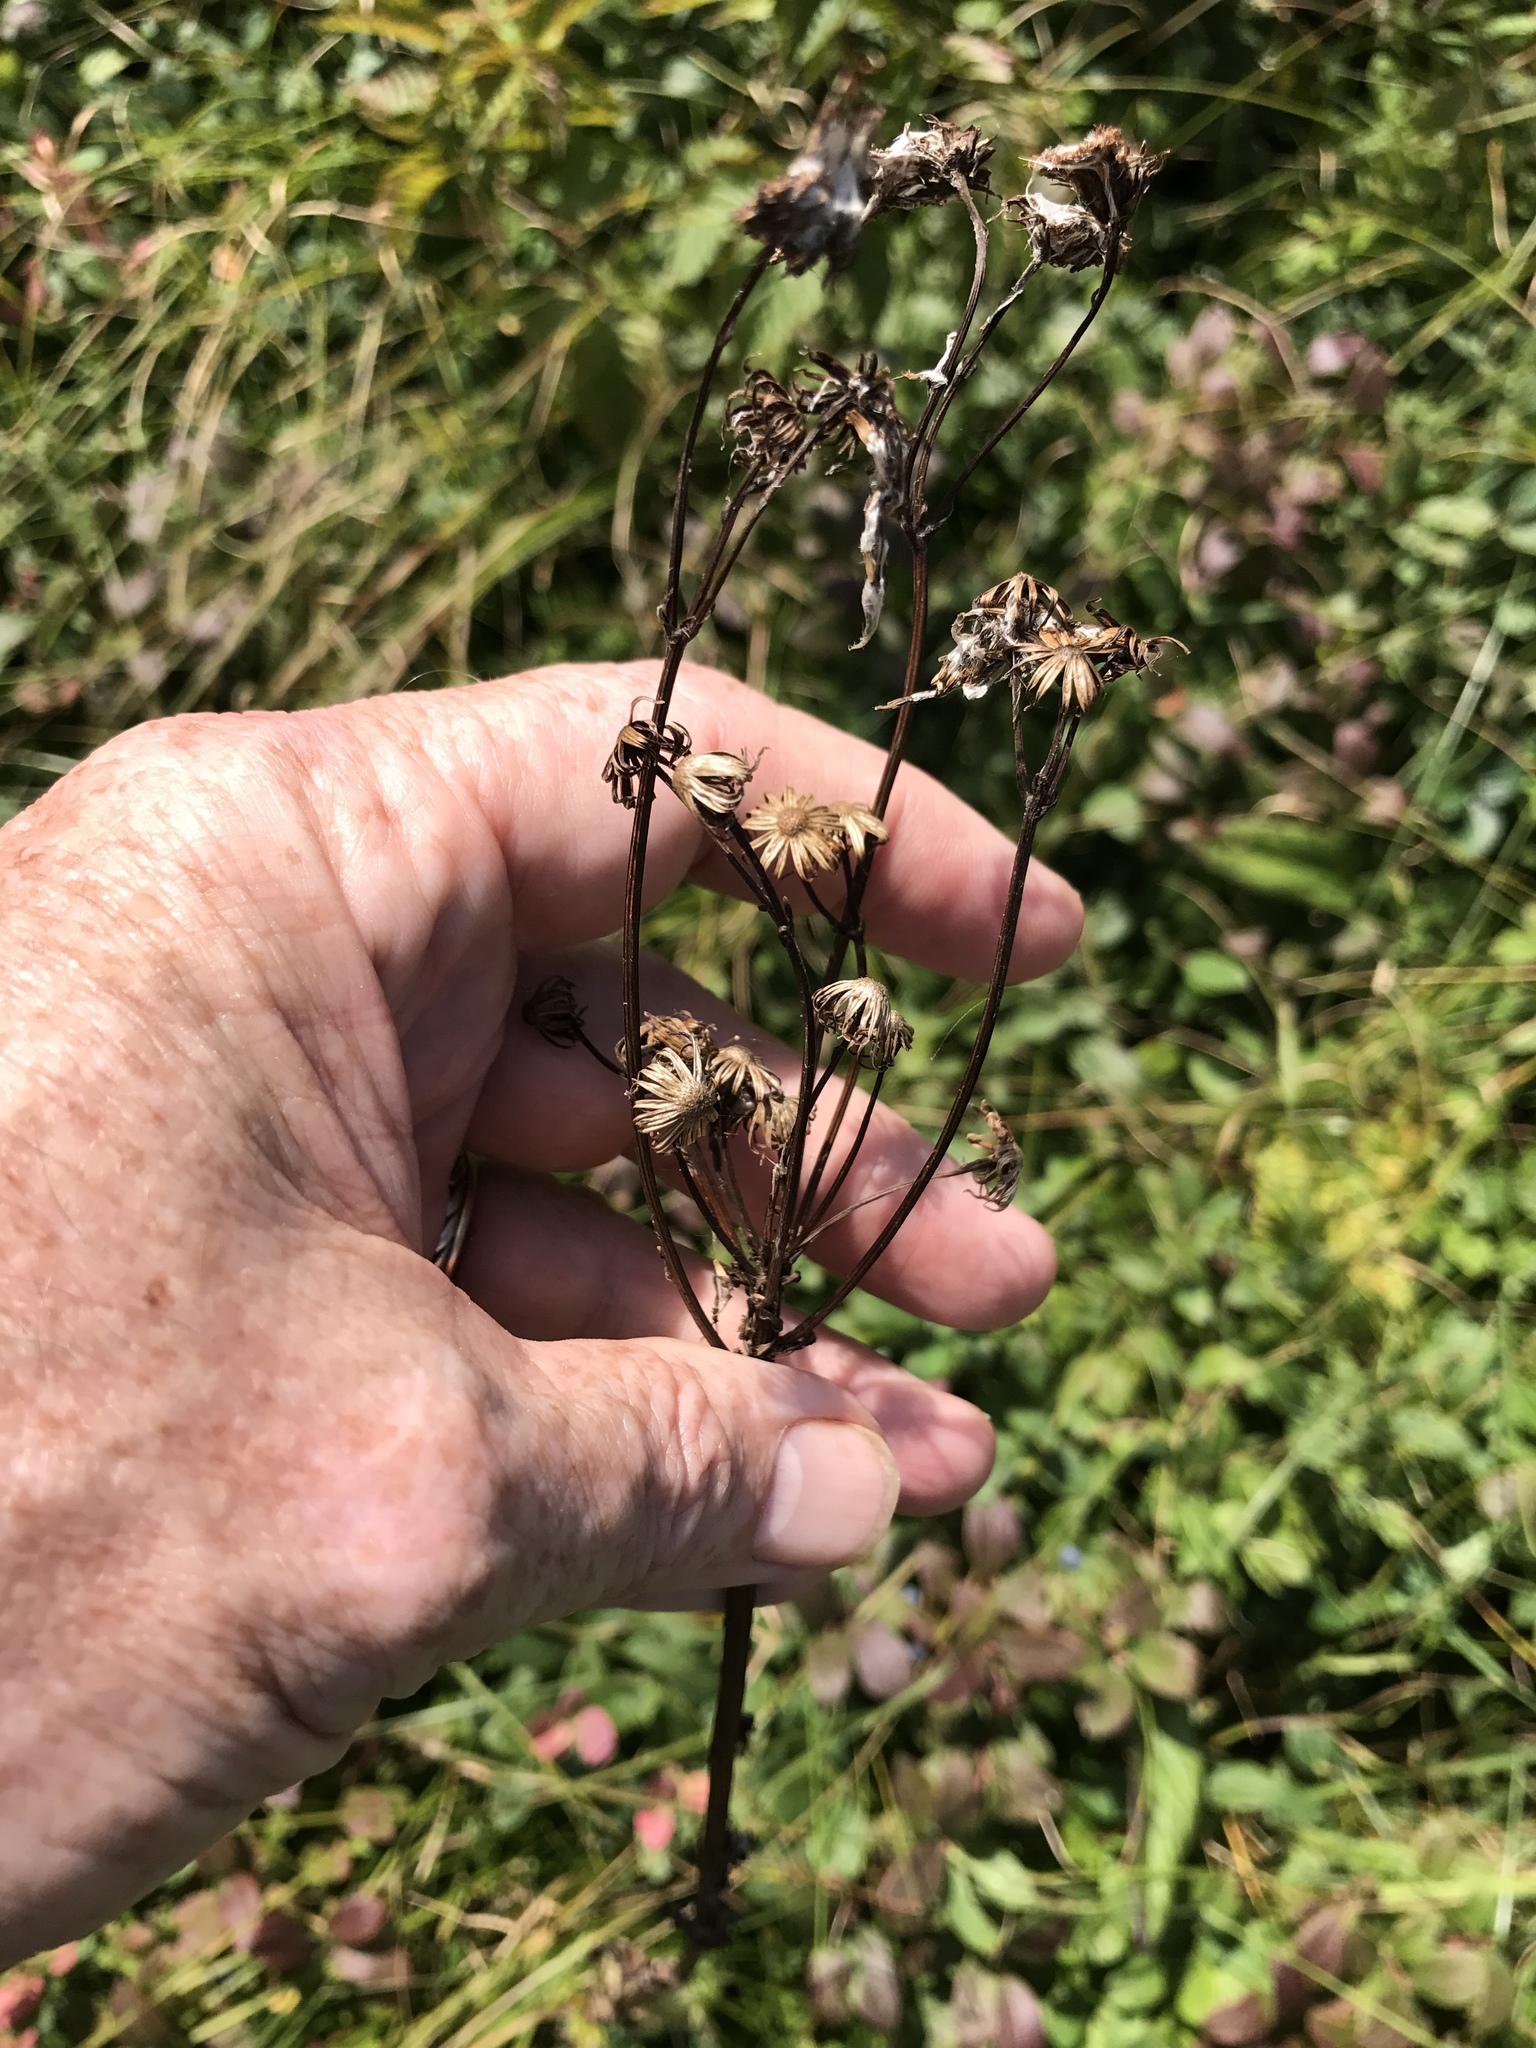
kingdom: Plantae
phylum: Tracheophyta
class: Magnoliopsida
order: Asterales
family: Asteraceae
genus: Packera
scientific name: Packera schweinitziana
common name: Schweinitz's ragwort
